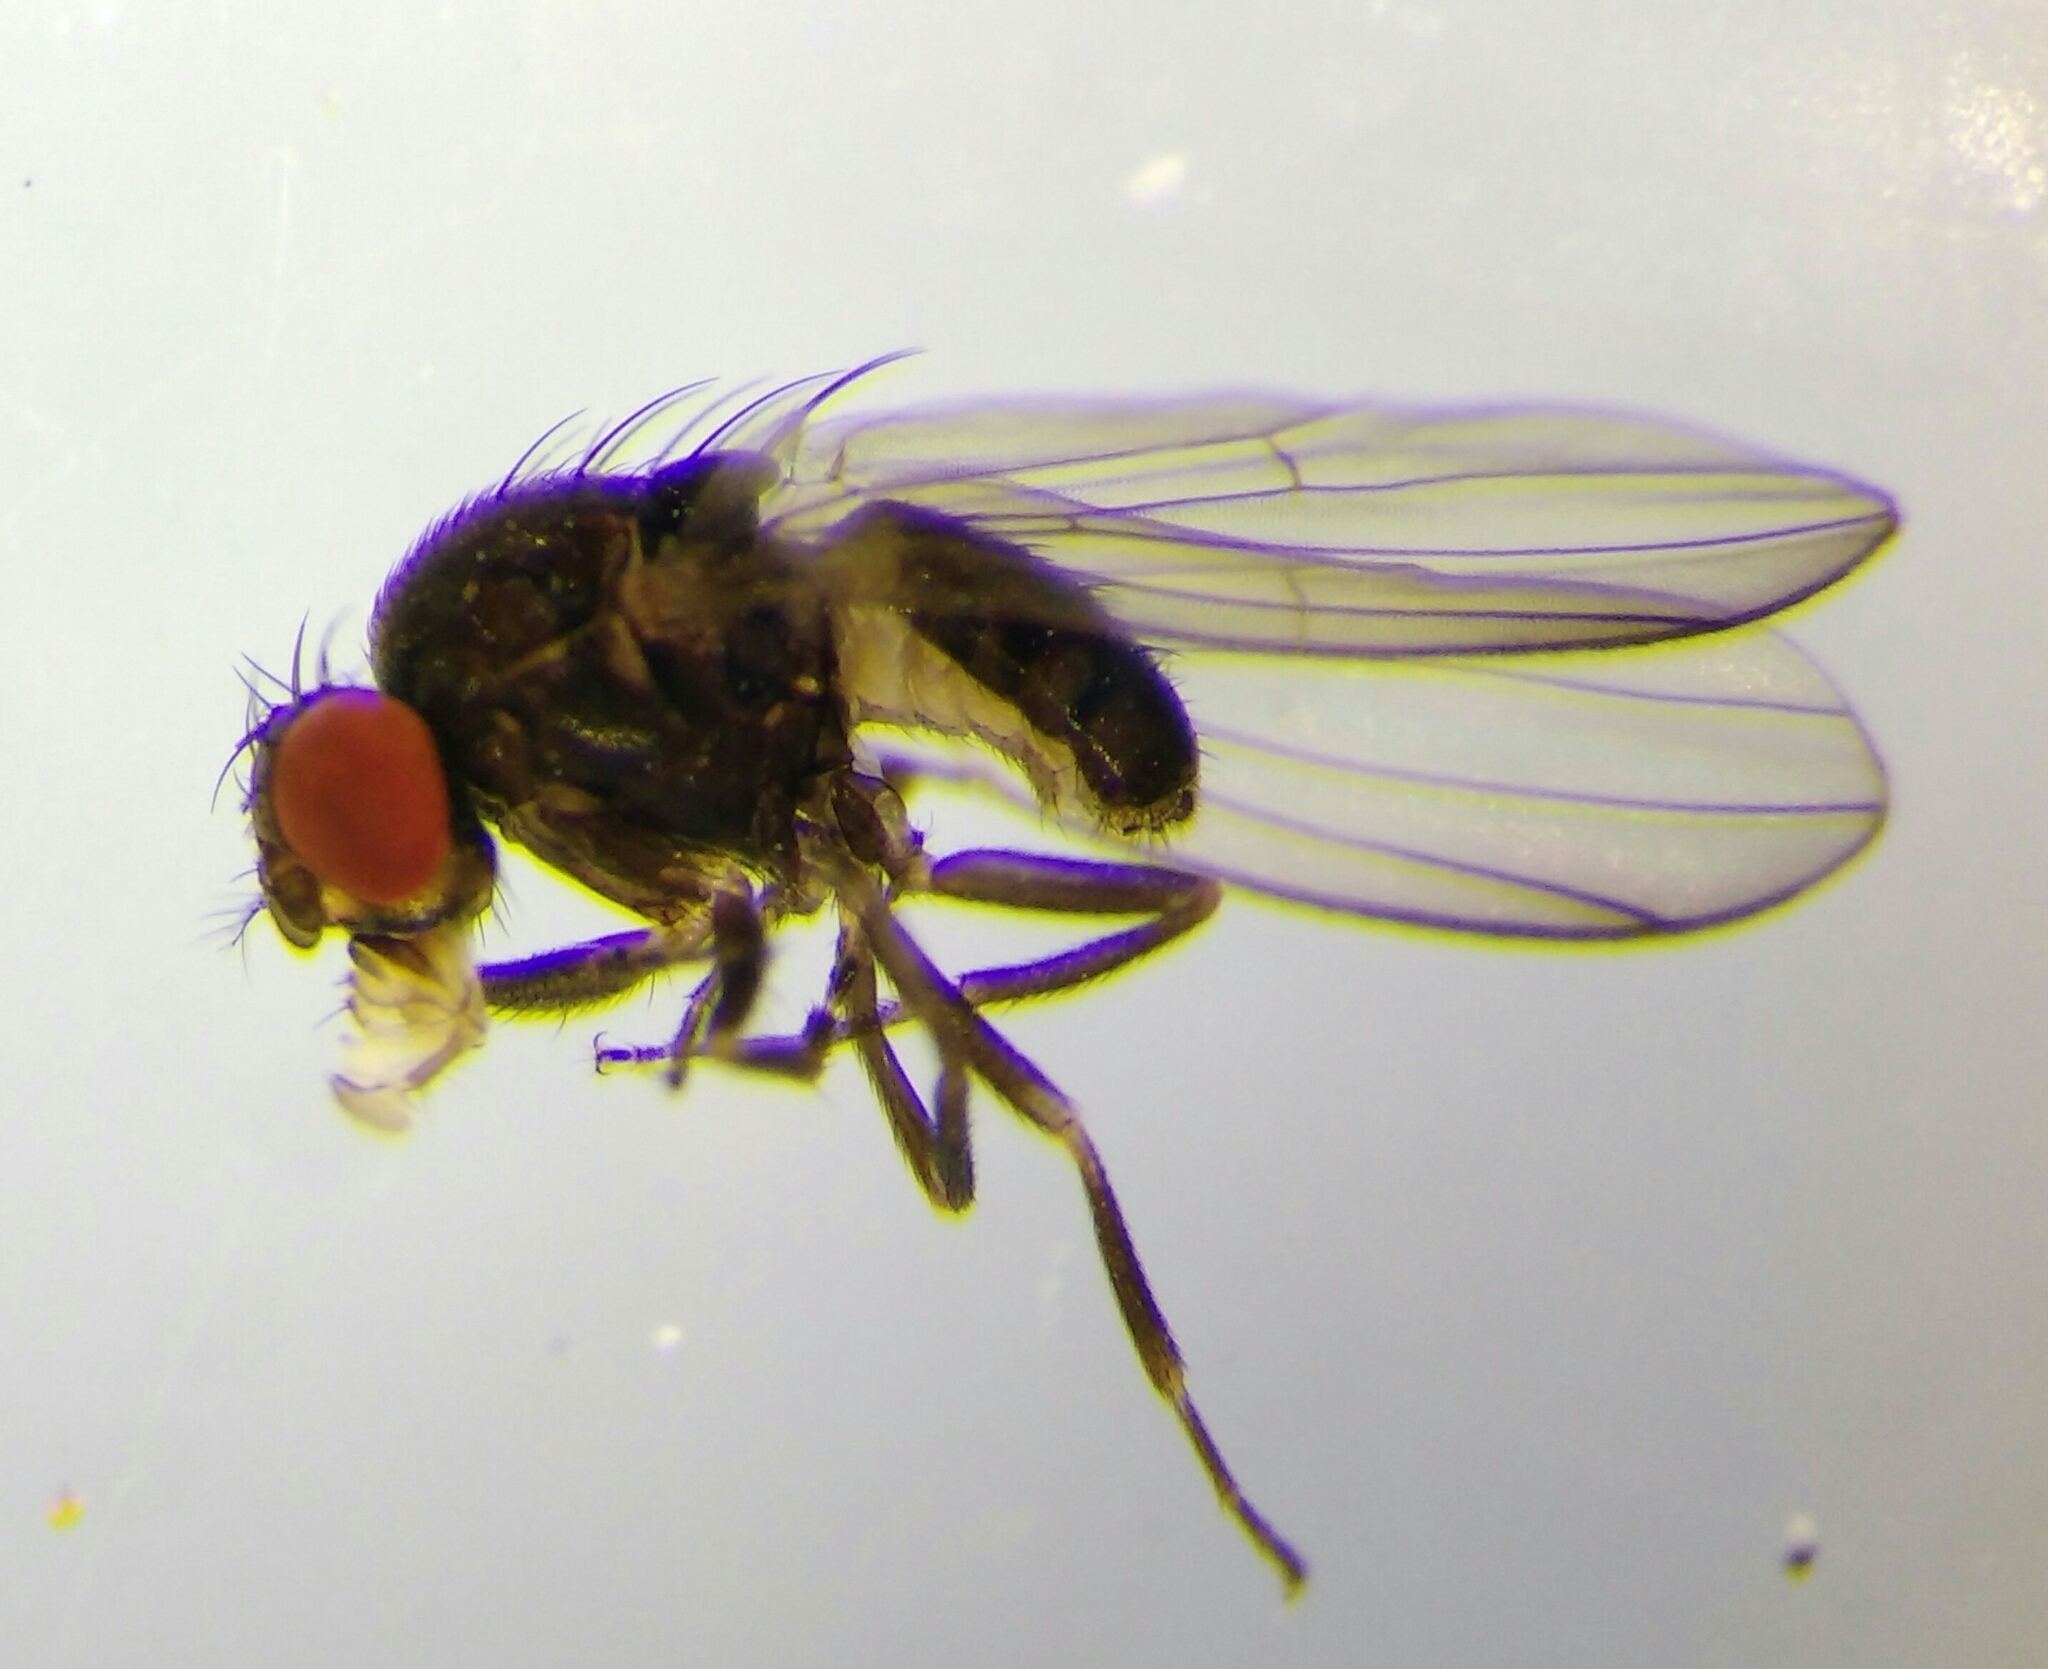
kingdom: Animalia
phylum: Arthropoda
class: Insecta
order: Diptera
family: Drosophilidae
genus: Drosophila
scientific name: Drosophila subobscura
